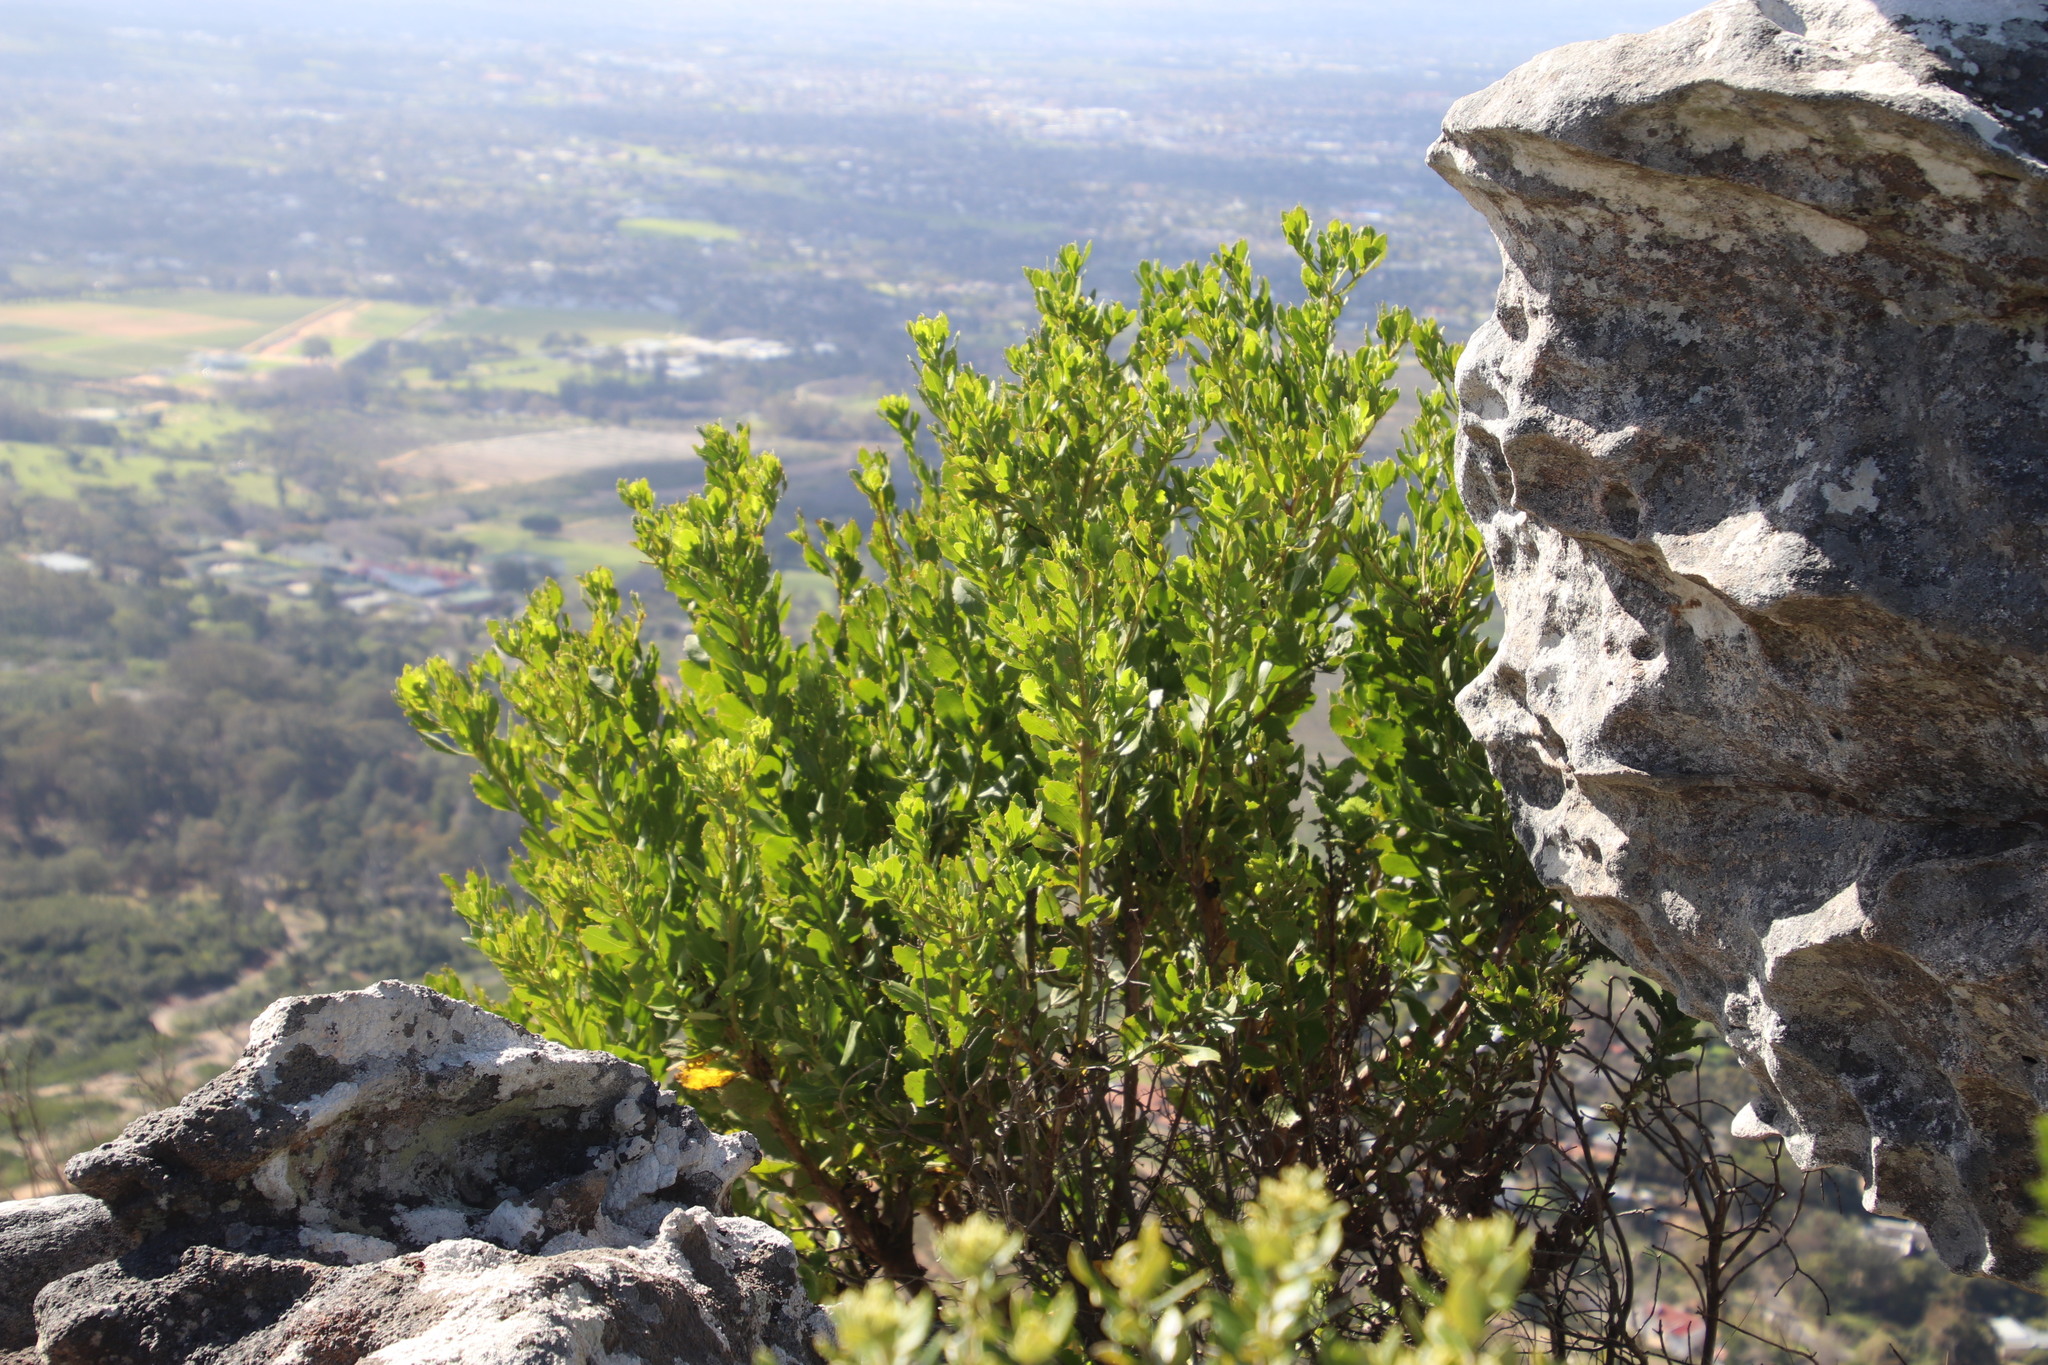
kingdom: Plantae
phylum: Tracheophyta
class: Magnoliopsida
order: Asterales
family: Asteraceae
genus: Osteospermum
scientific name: Osteospermum moniliferum
